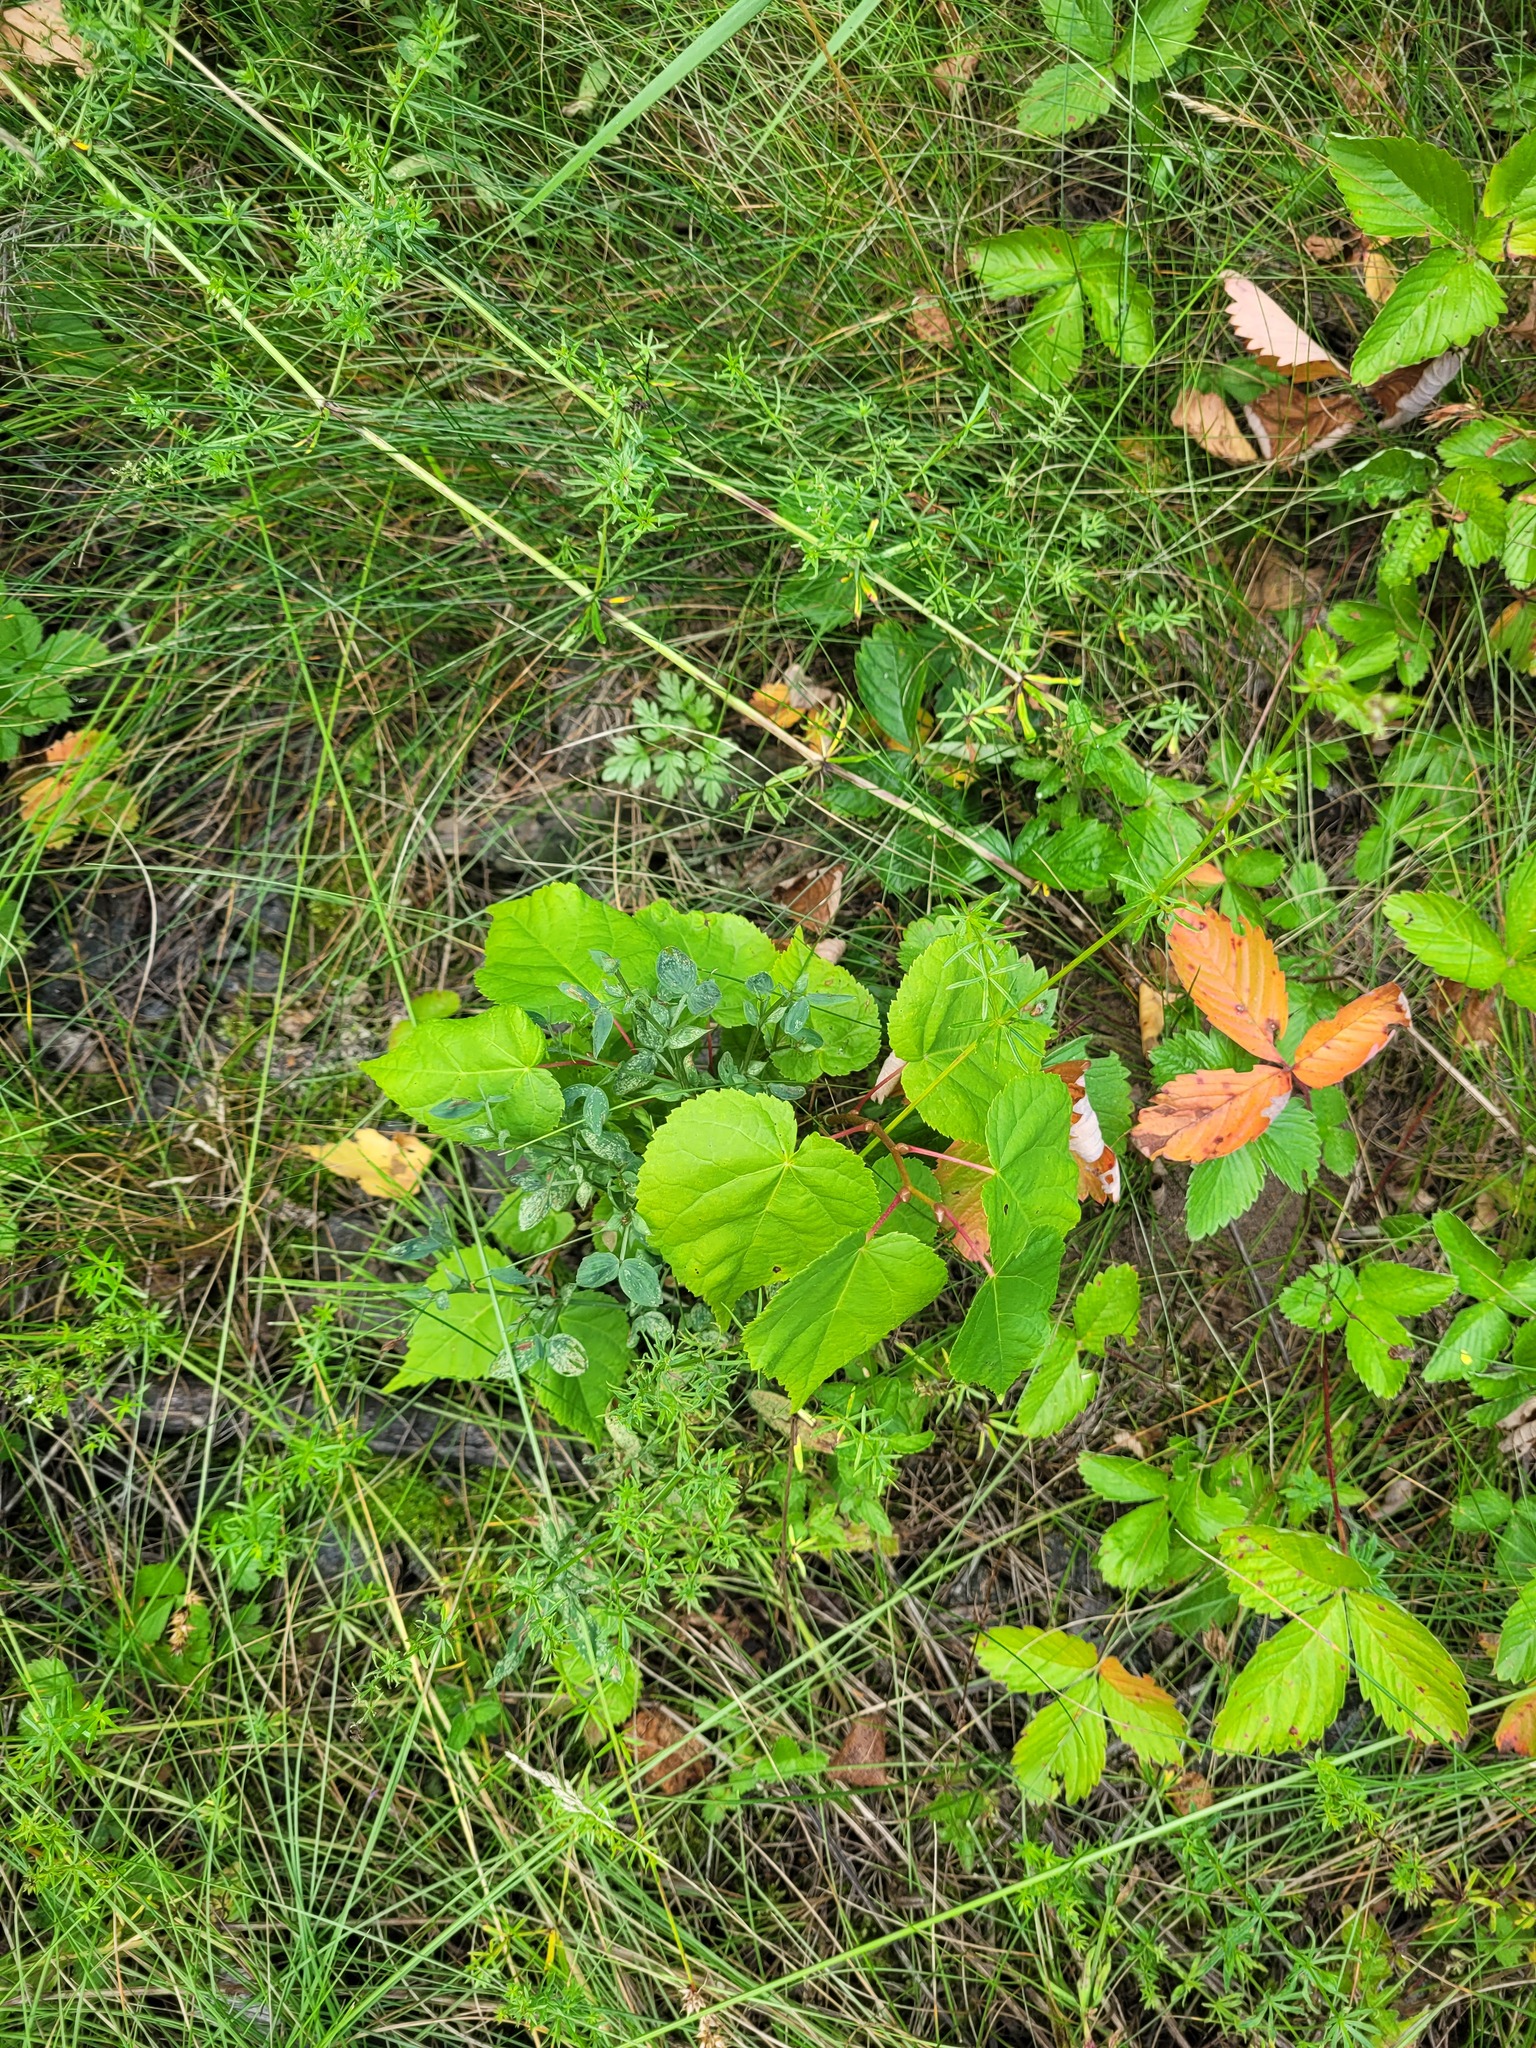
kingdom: Plantae
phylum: Tracheophyta
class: Magnoliopsida
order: Malvales
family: Malvaceae
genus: Tilia
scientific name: Tilia cordata
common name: Small-leaved lime
